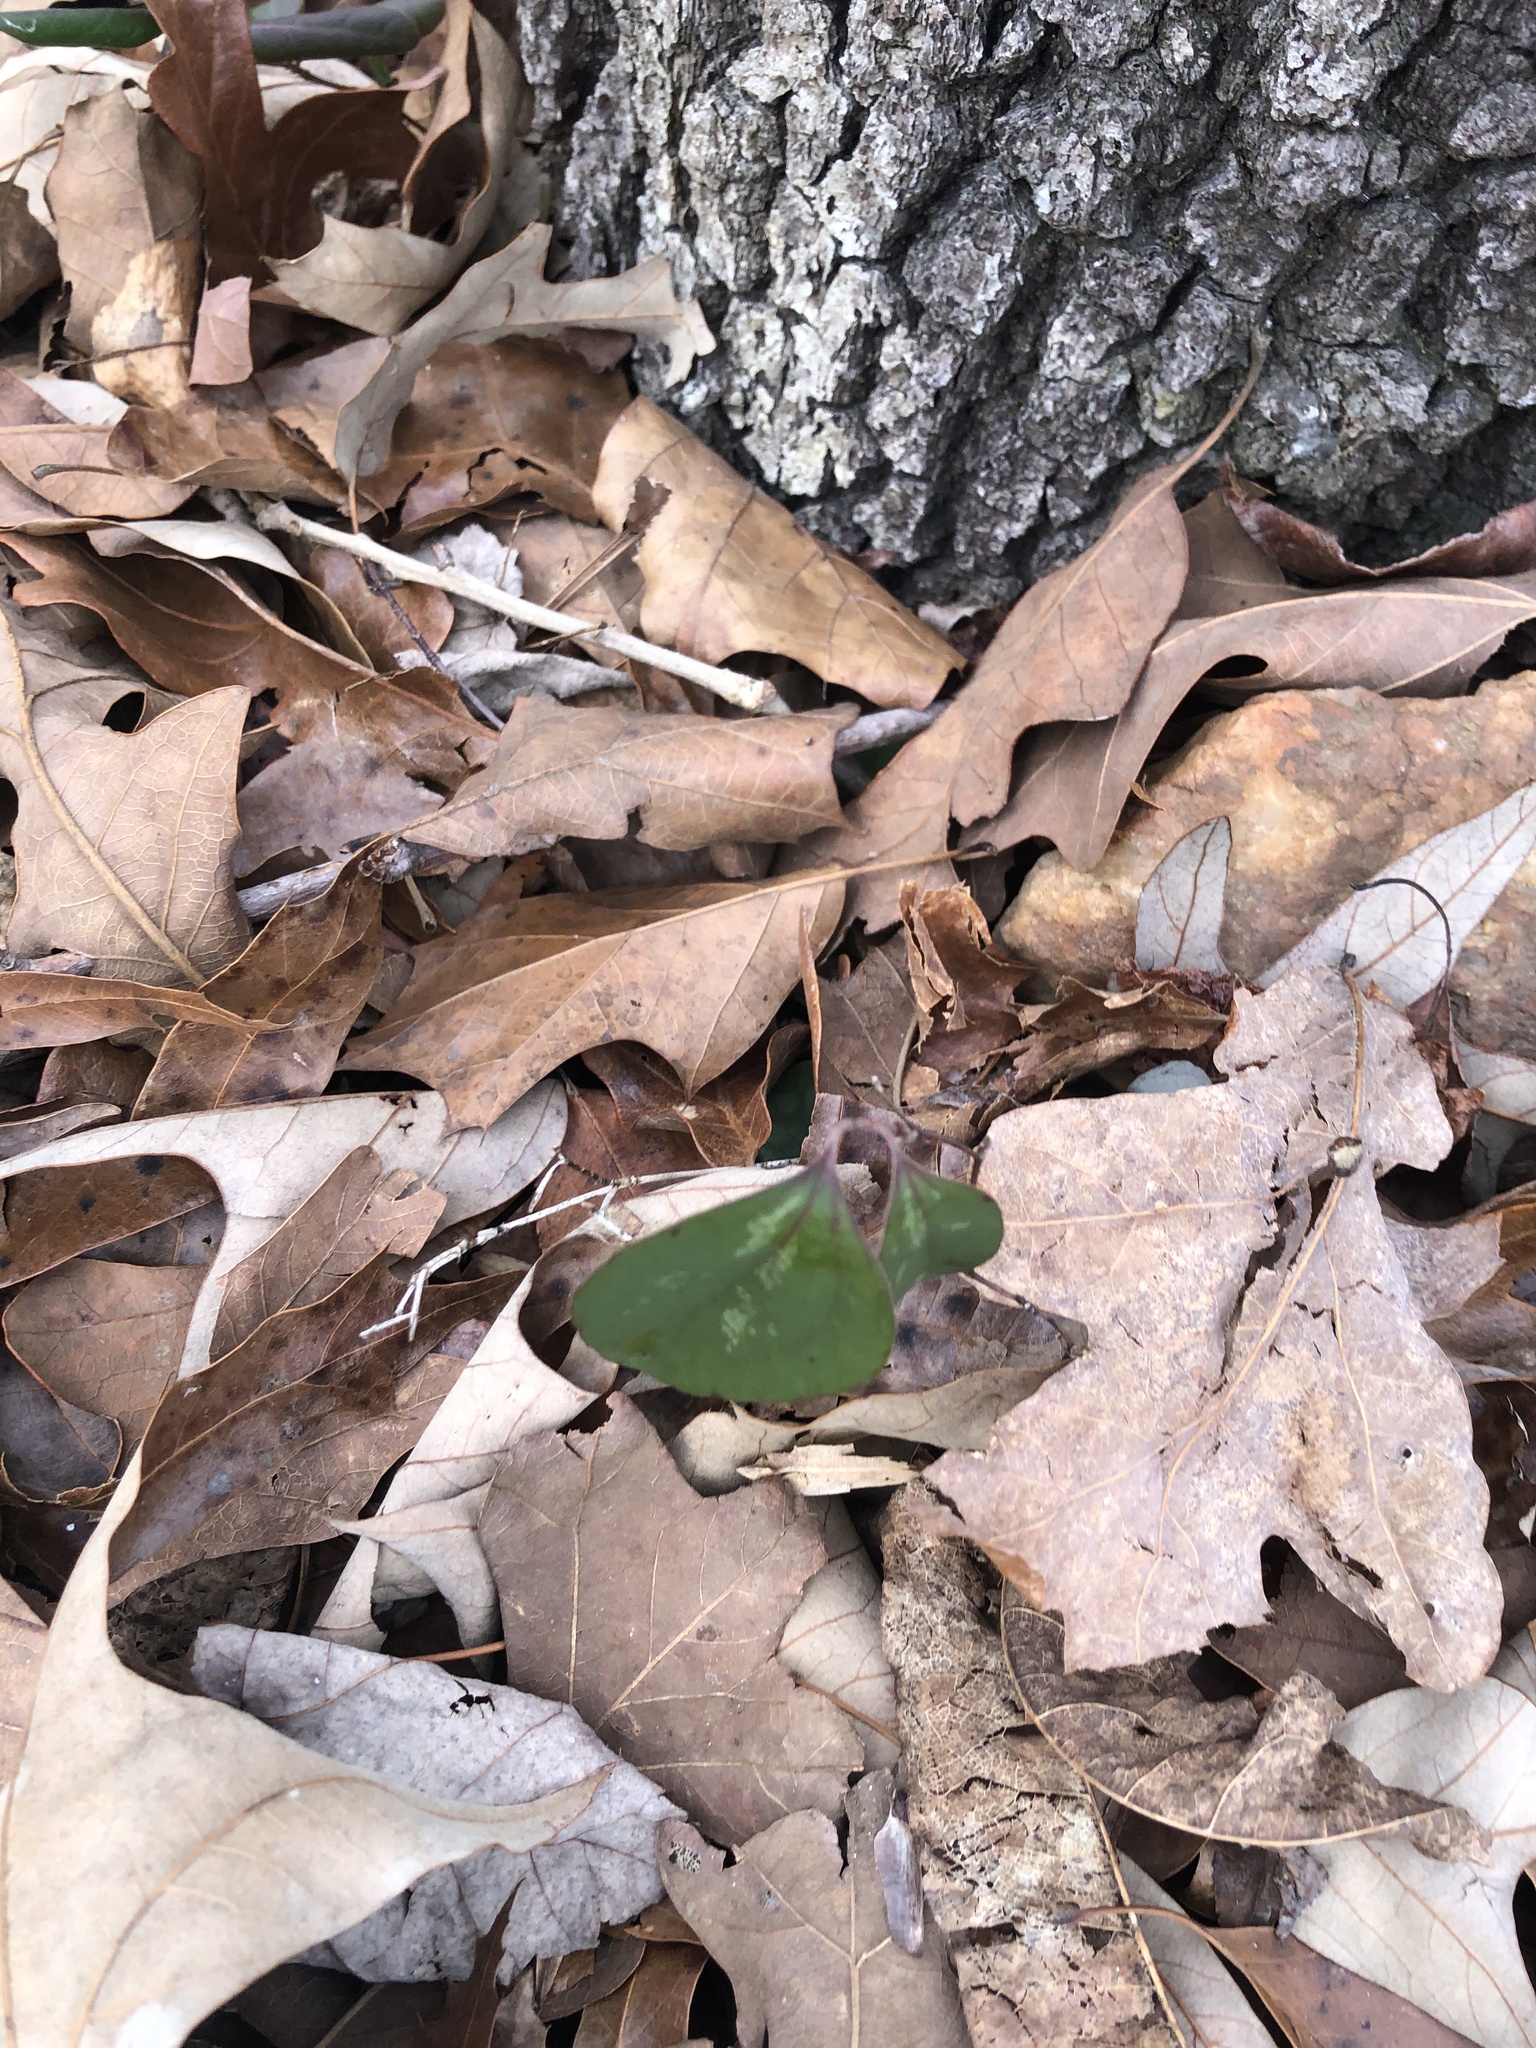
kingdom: Plantae
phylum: Tracheophyta
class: Liliopsida
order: Liliales
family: Smilacaceae
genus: Smilax
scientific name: Smilax glauca
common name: Cat greenbrier
